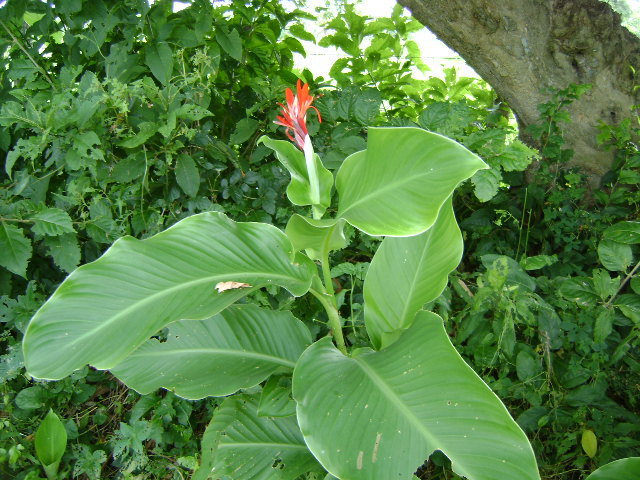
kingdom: Plantae
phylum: Tracheophyta
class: Liliopsida
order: Zingiberales
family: Cannaceae
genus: Canna
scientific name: Canna indica
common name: Indian shot
